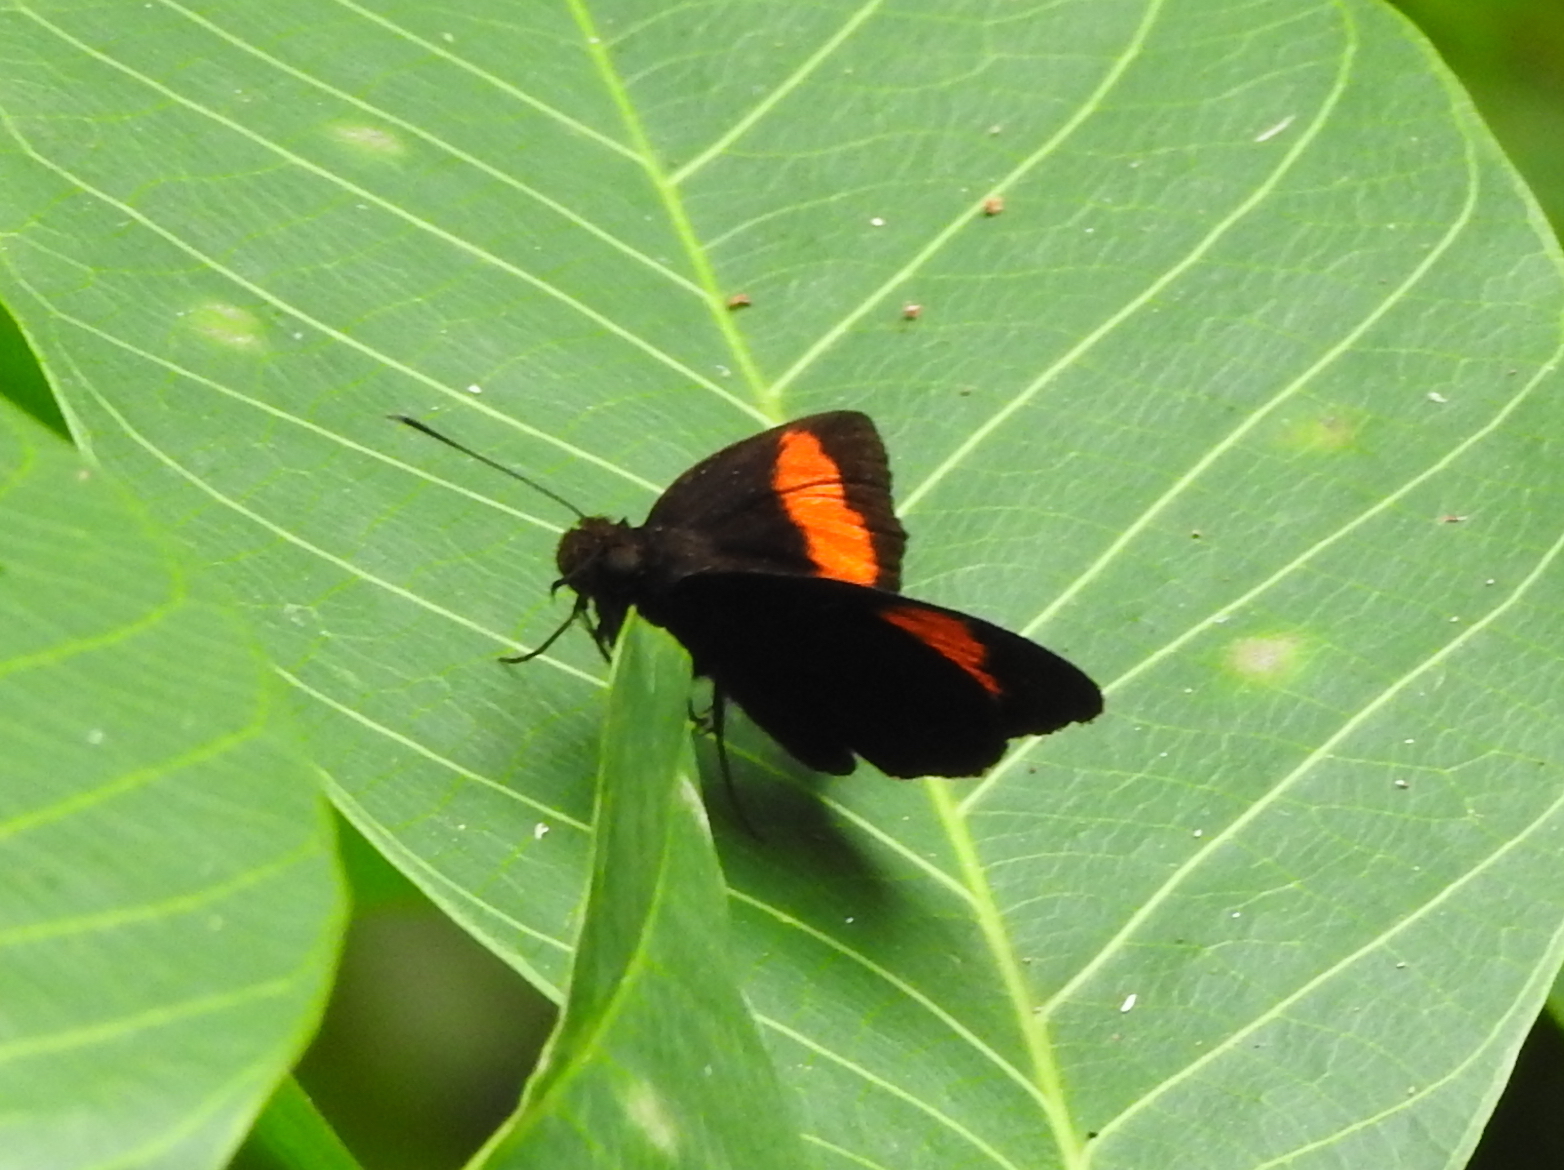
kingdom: Animalia
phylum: Arthropoda
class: Insecta
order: Lepidoptera
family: Hesperiidae
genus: Koruthaialos
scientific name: Koruthaialos sindu
